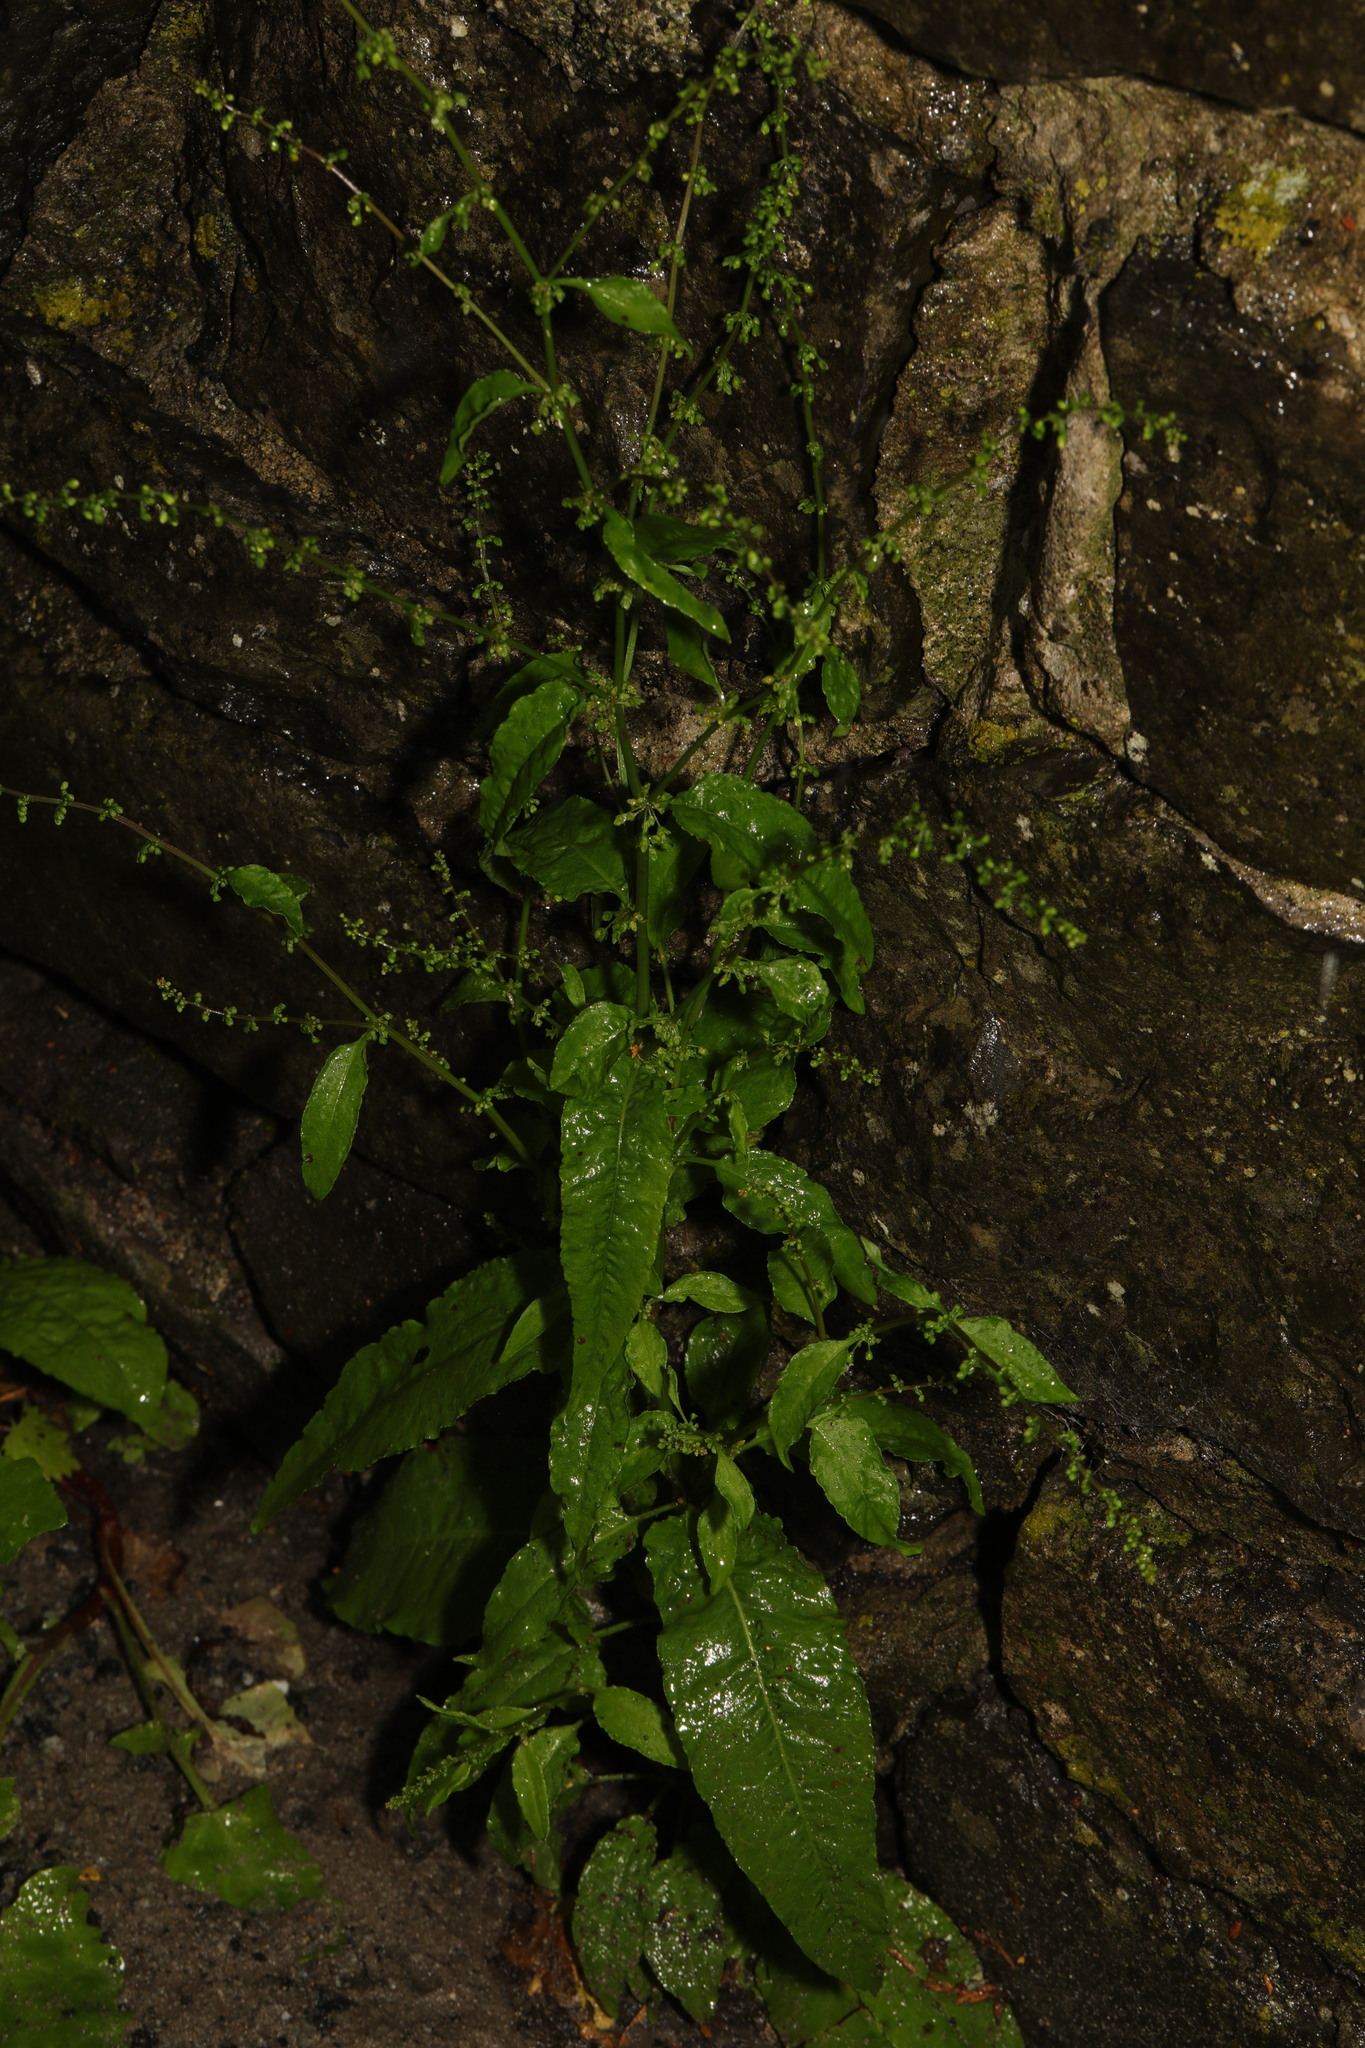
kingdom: Plantae
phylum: Tracheophyta
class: Magnoliopsida
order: Caryophyllales
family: Polygonaceae
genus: Rumex
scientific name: Rumex sanguineus
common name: Wood dock
